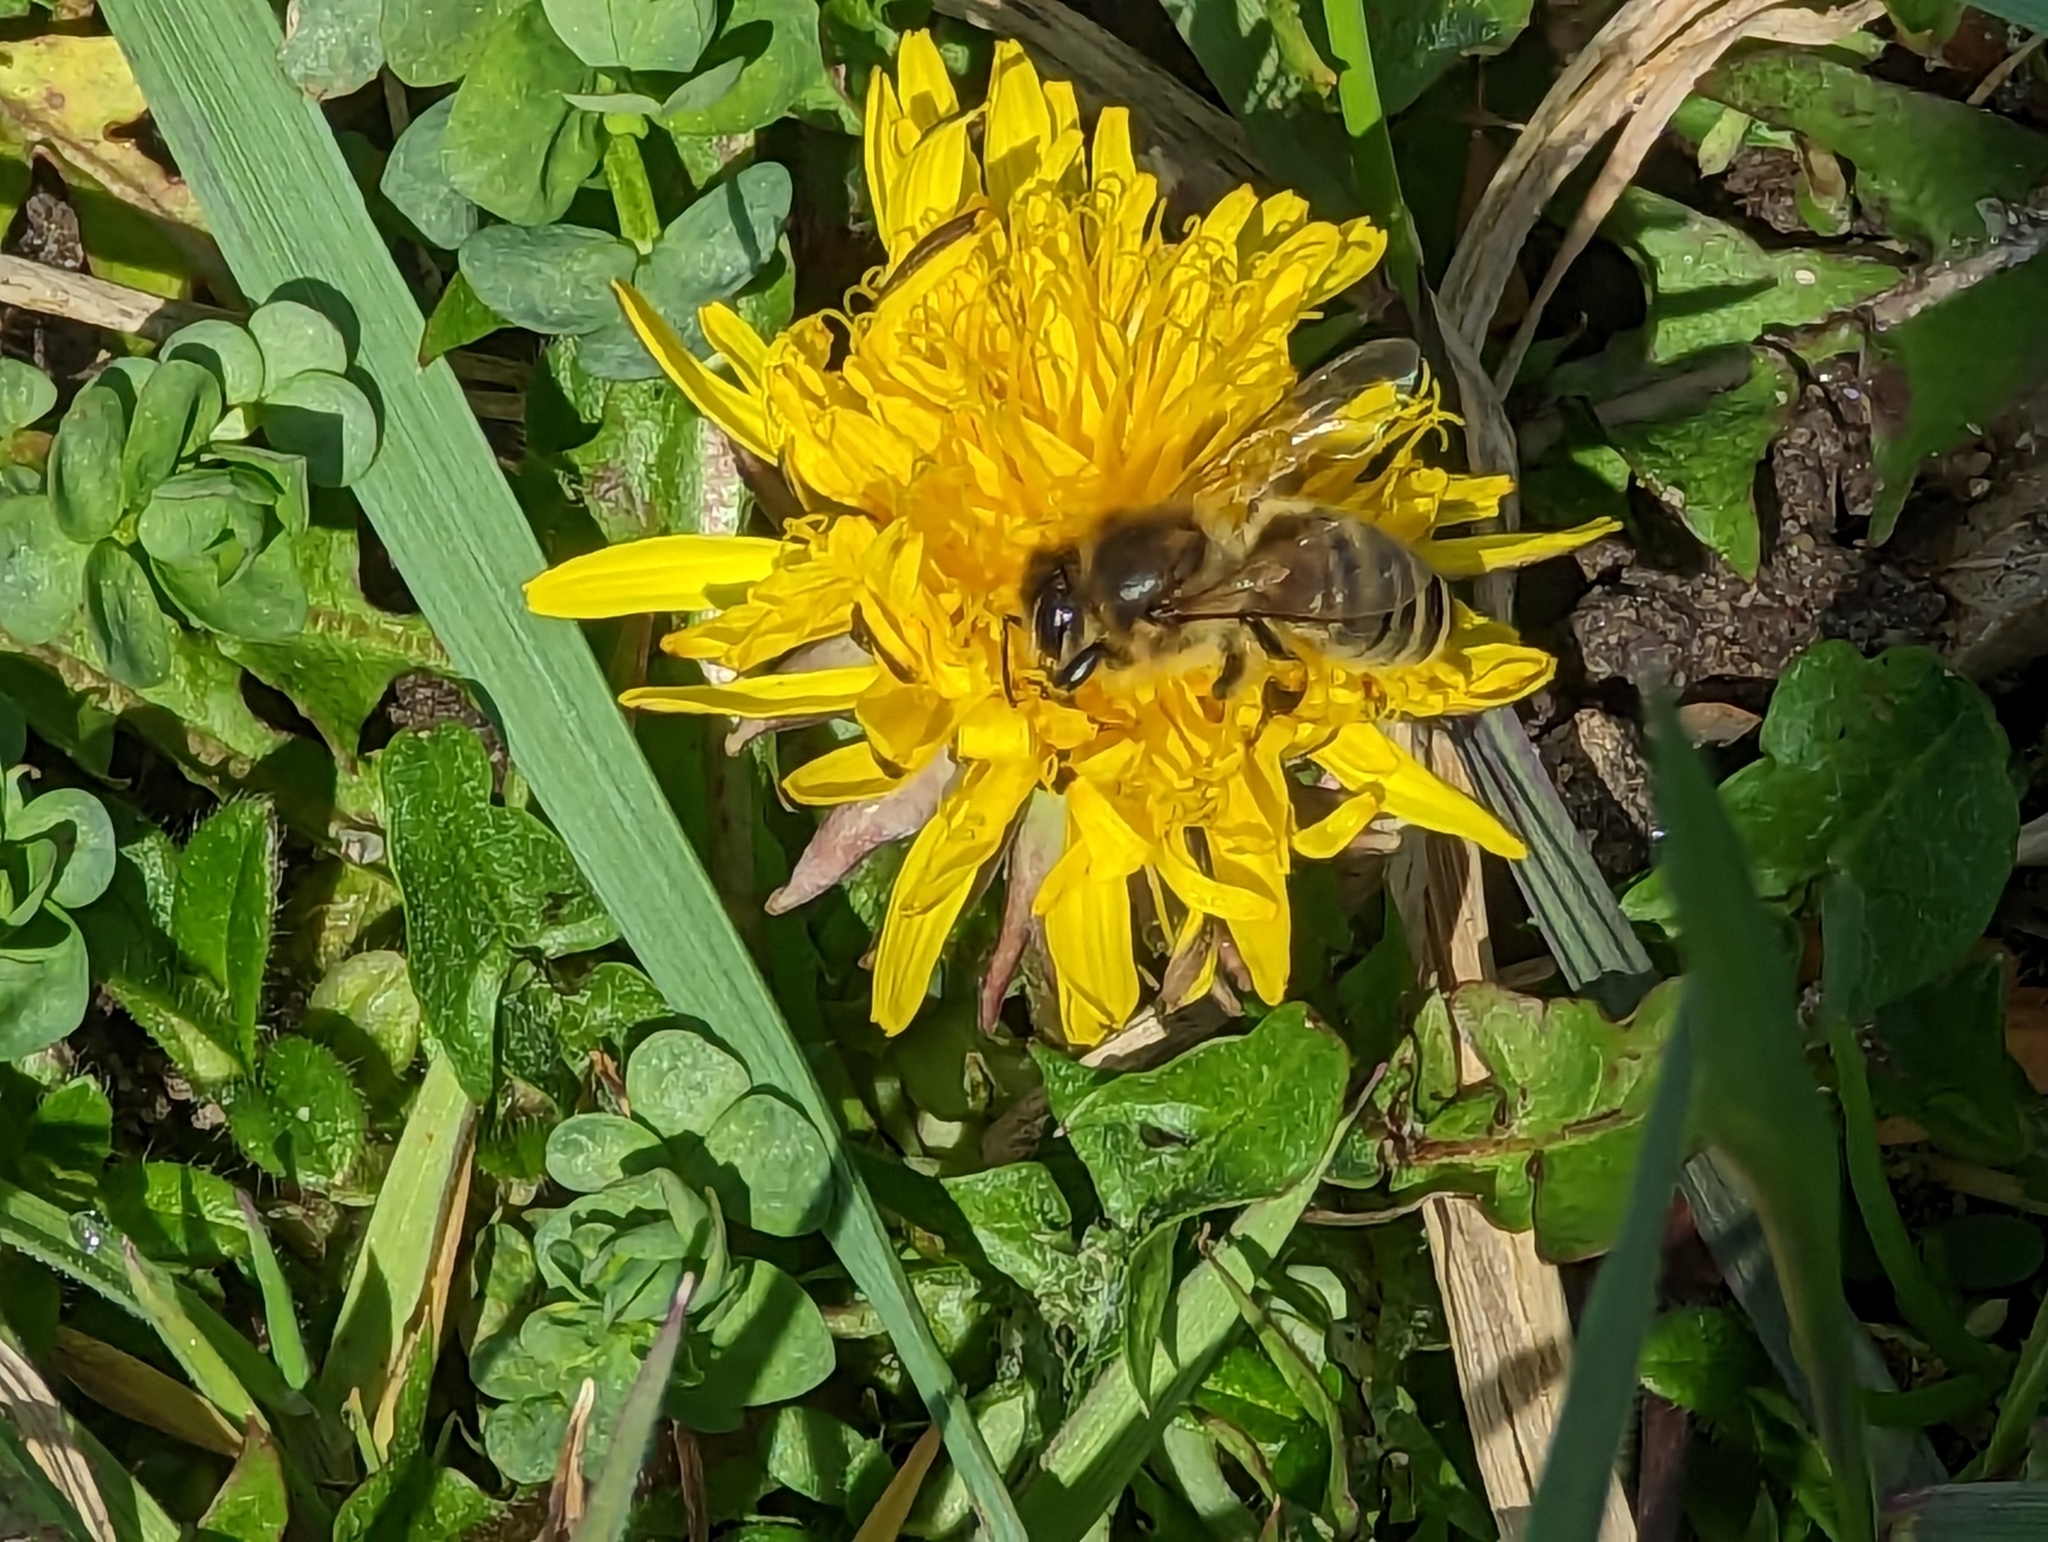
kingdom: Animalia
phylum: Arthropoda
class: Insecta
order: Hymenoptera
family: Apidae
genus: Apis
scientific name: Apis mellifera
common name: Honey bee
